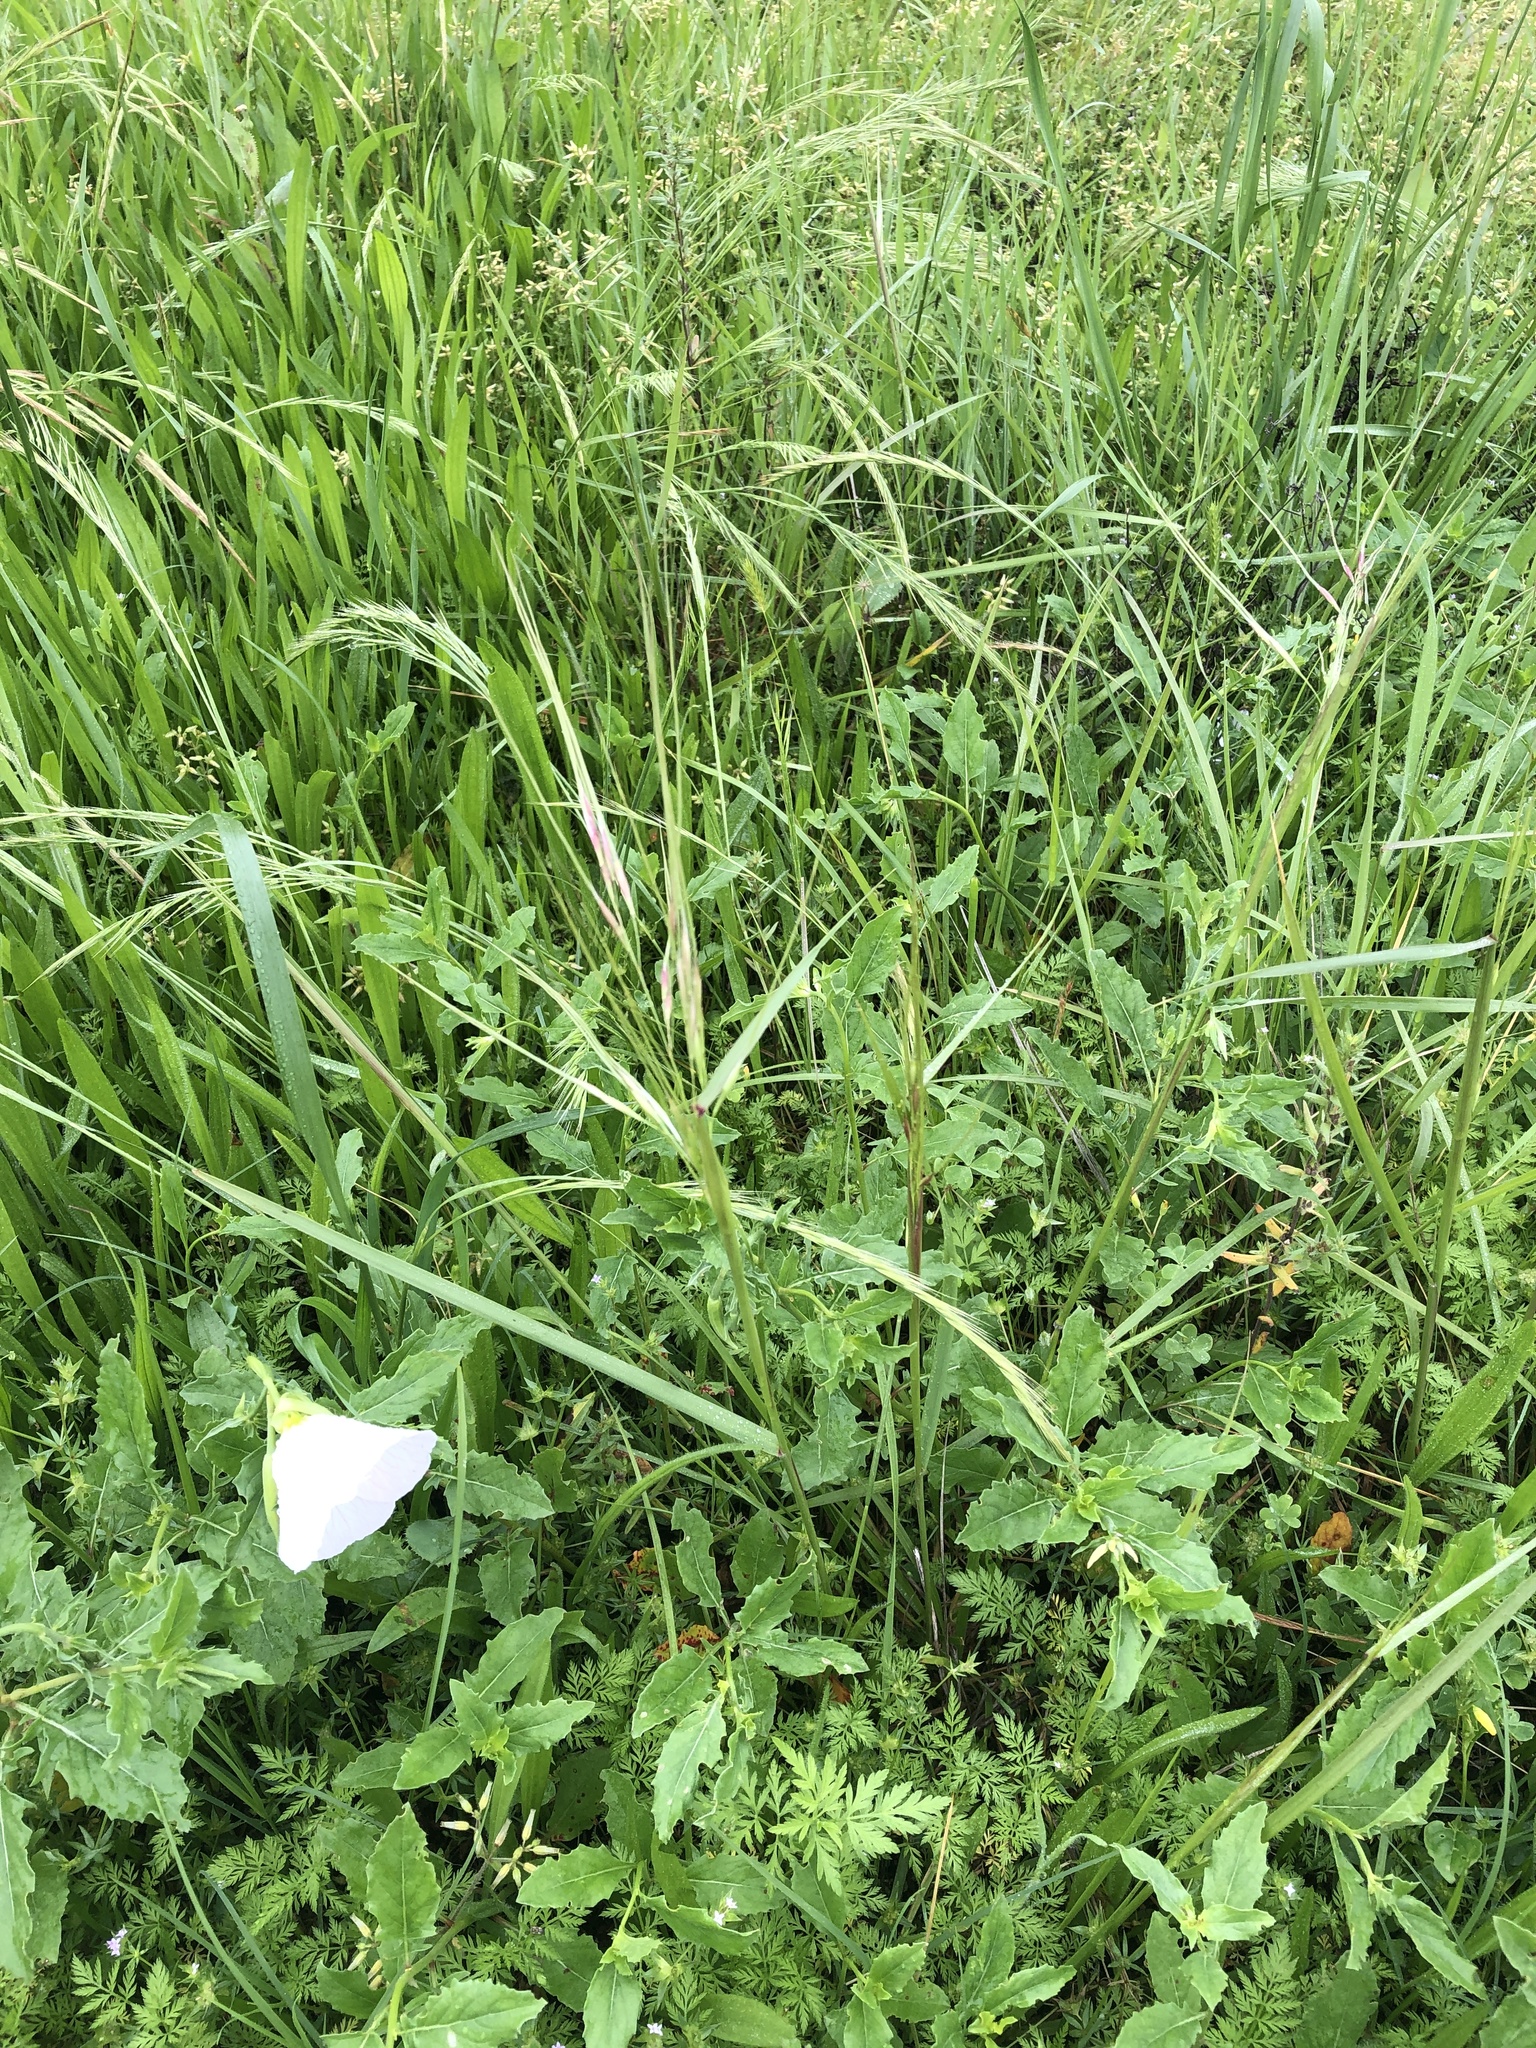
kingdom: Plantae
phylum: Tracheophyta
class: Liliopsida
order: Poales
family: Poaceae
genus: Nassella
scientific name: Nassella leucotricha
